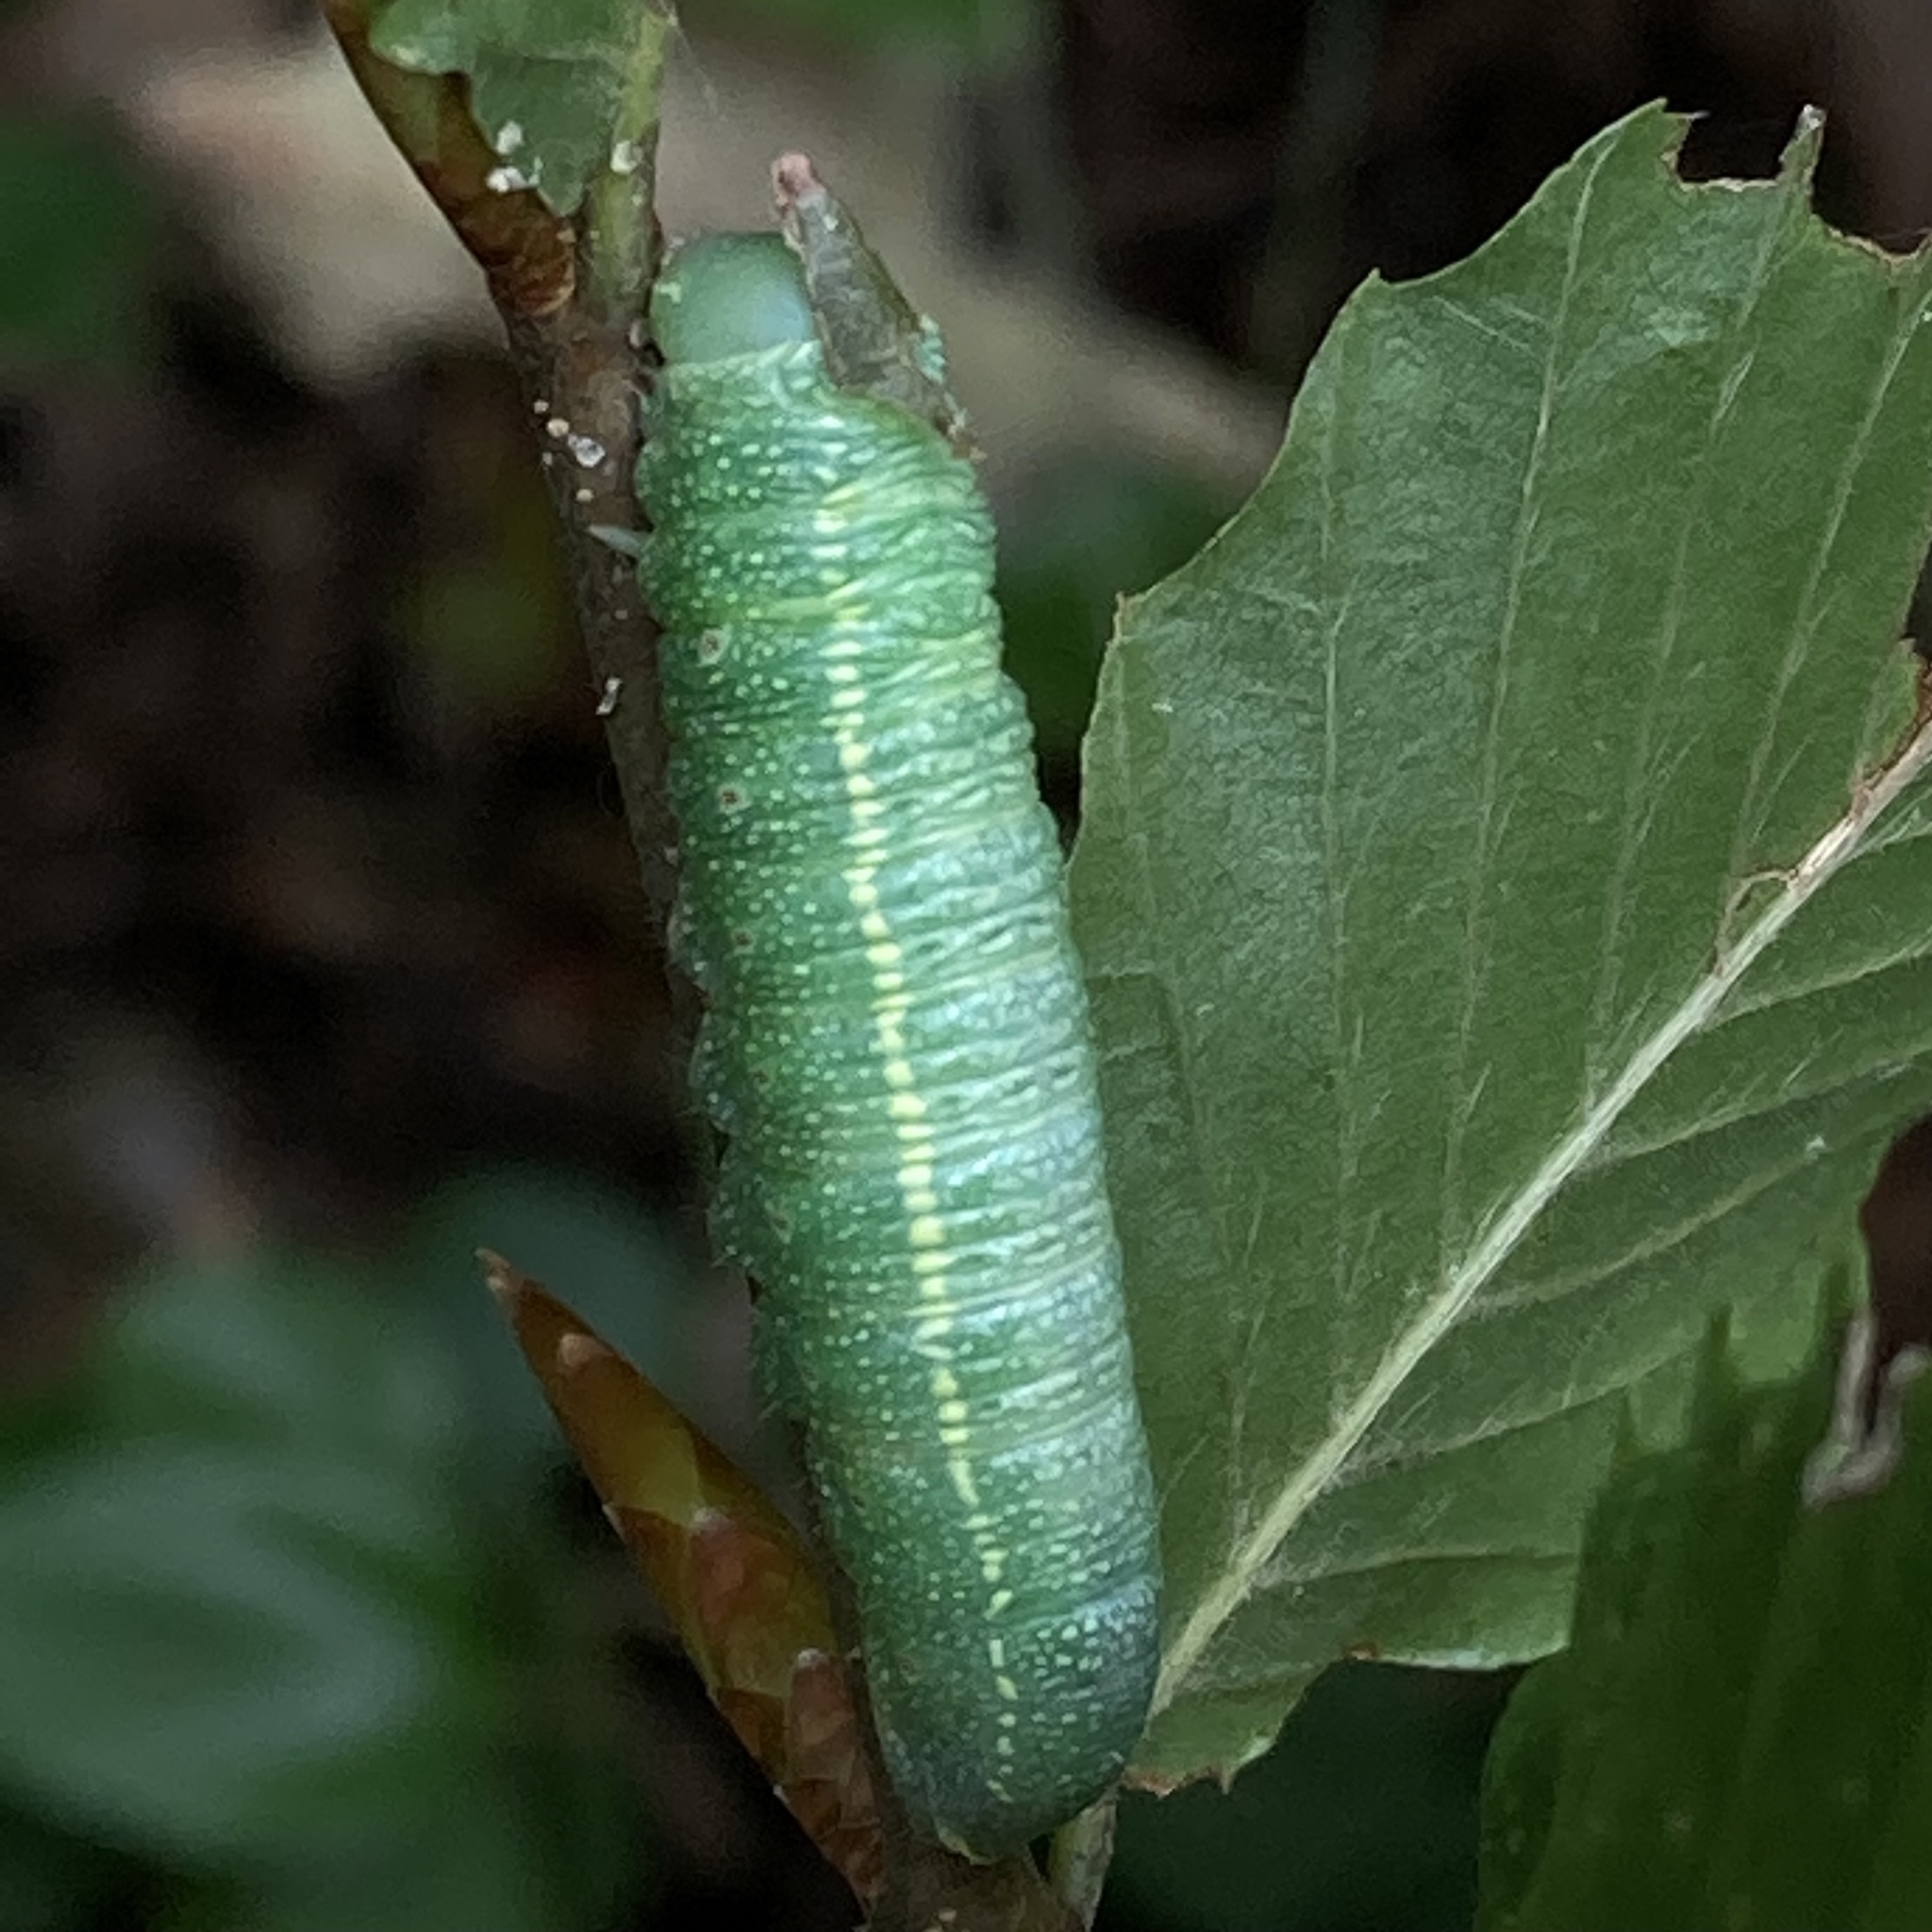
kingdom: Animalia
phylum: Arthropoda
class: Insecta
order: Lepidoptera
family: Notodontidae
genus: Nadata
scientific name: Nadata gibbosa
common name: White-dotted prominent
